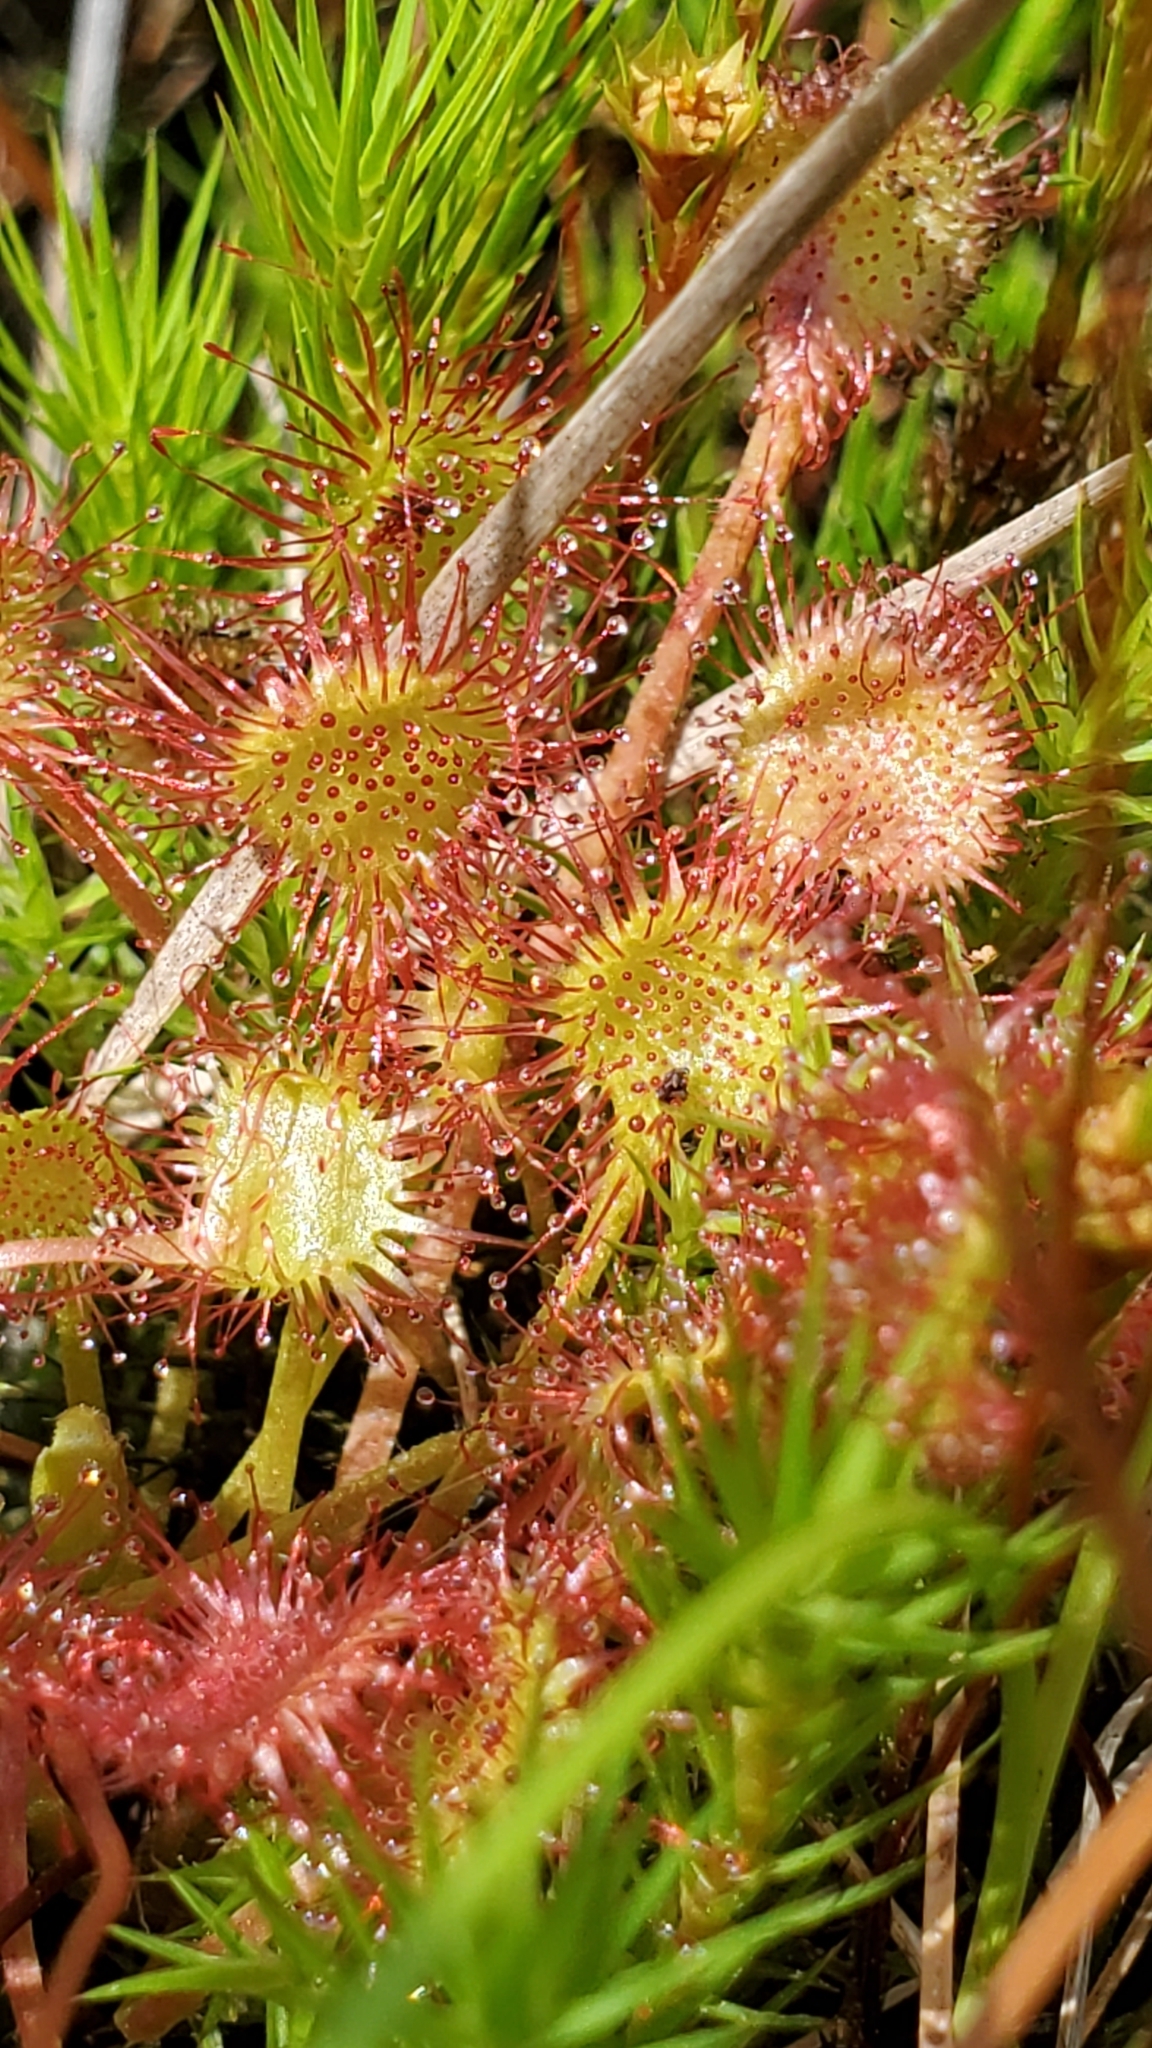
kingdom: Plantae
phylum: Tracheophyta
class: Magnoliopsida
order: Caryophyllales
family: Droseraceae
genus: Drosera
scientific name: Drosera rotundifolia
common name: Round-leaved sundew
